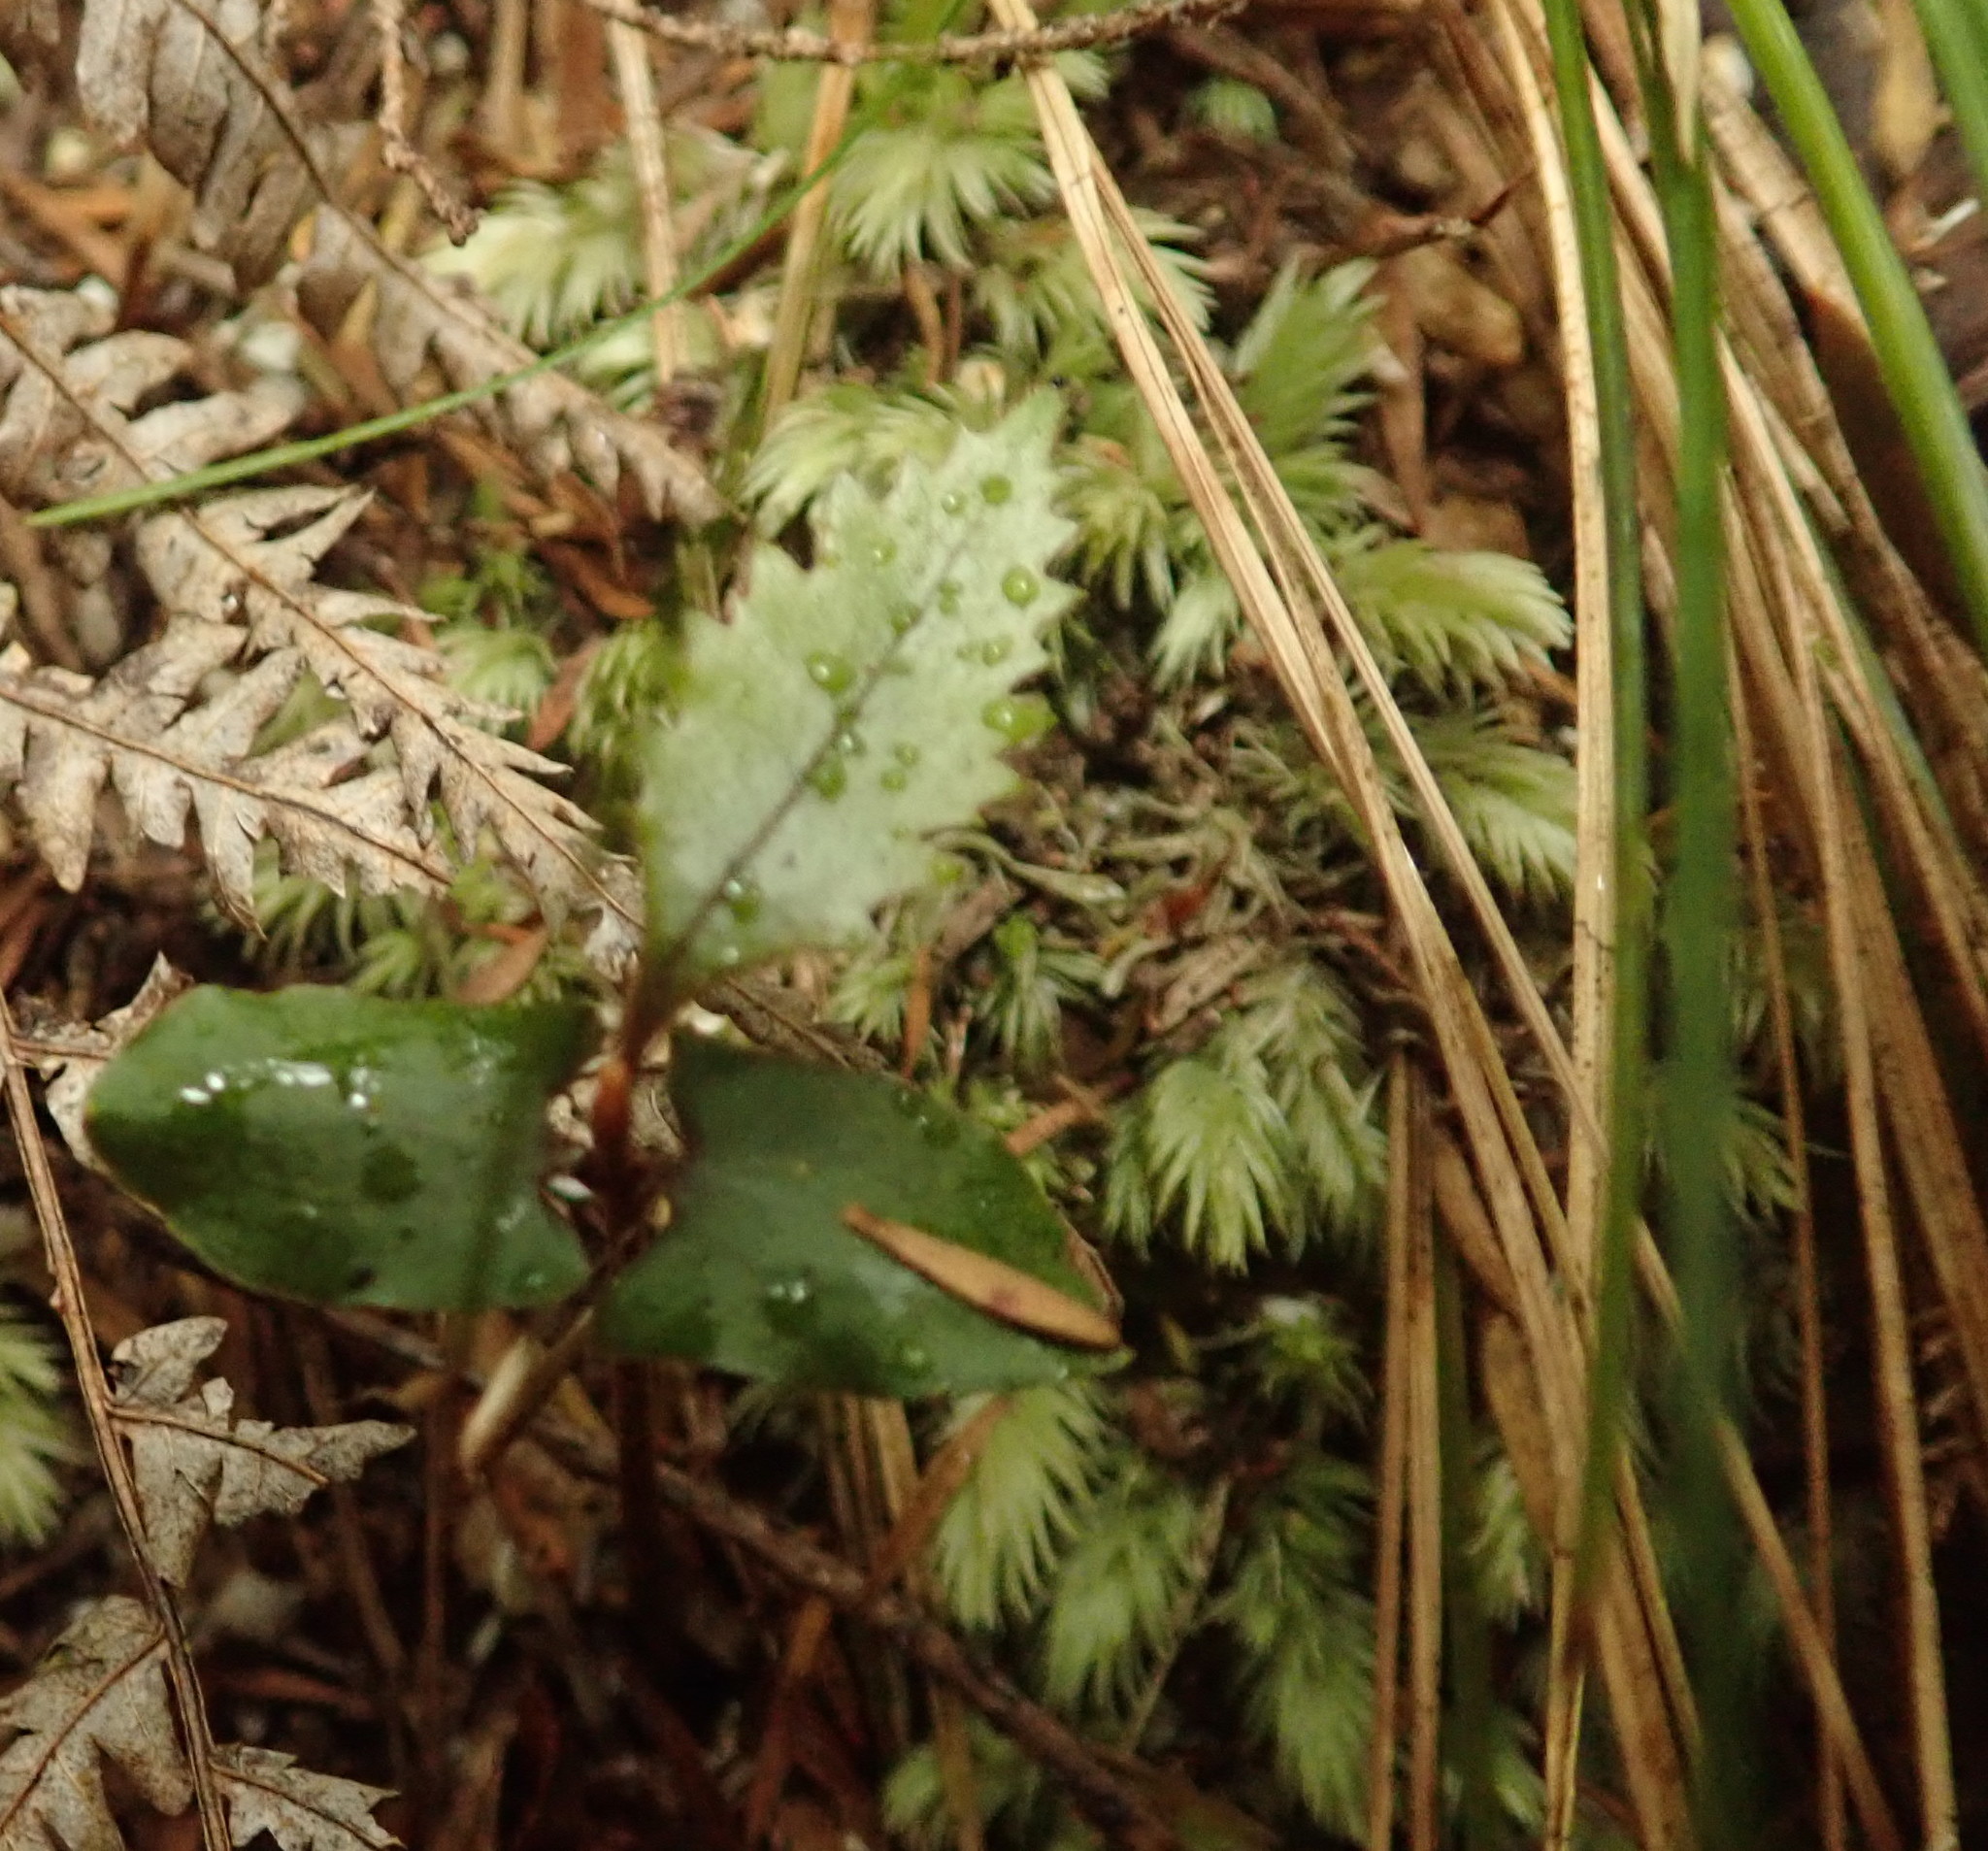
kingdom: Plantae
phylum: Bryophyta
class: Bryopsida
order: Dicranales
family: Leucobryaceae
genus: Leucobryum
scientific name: Leucobryum javense
